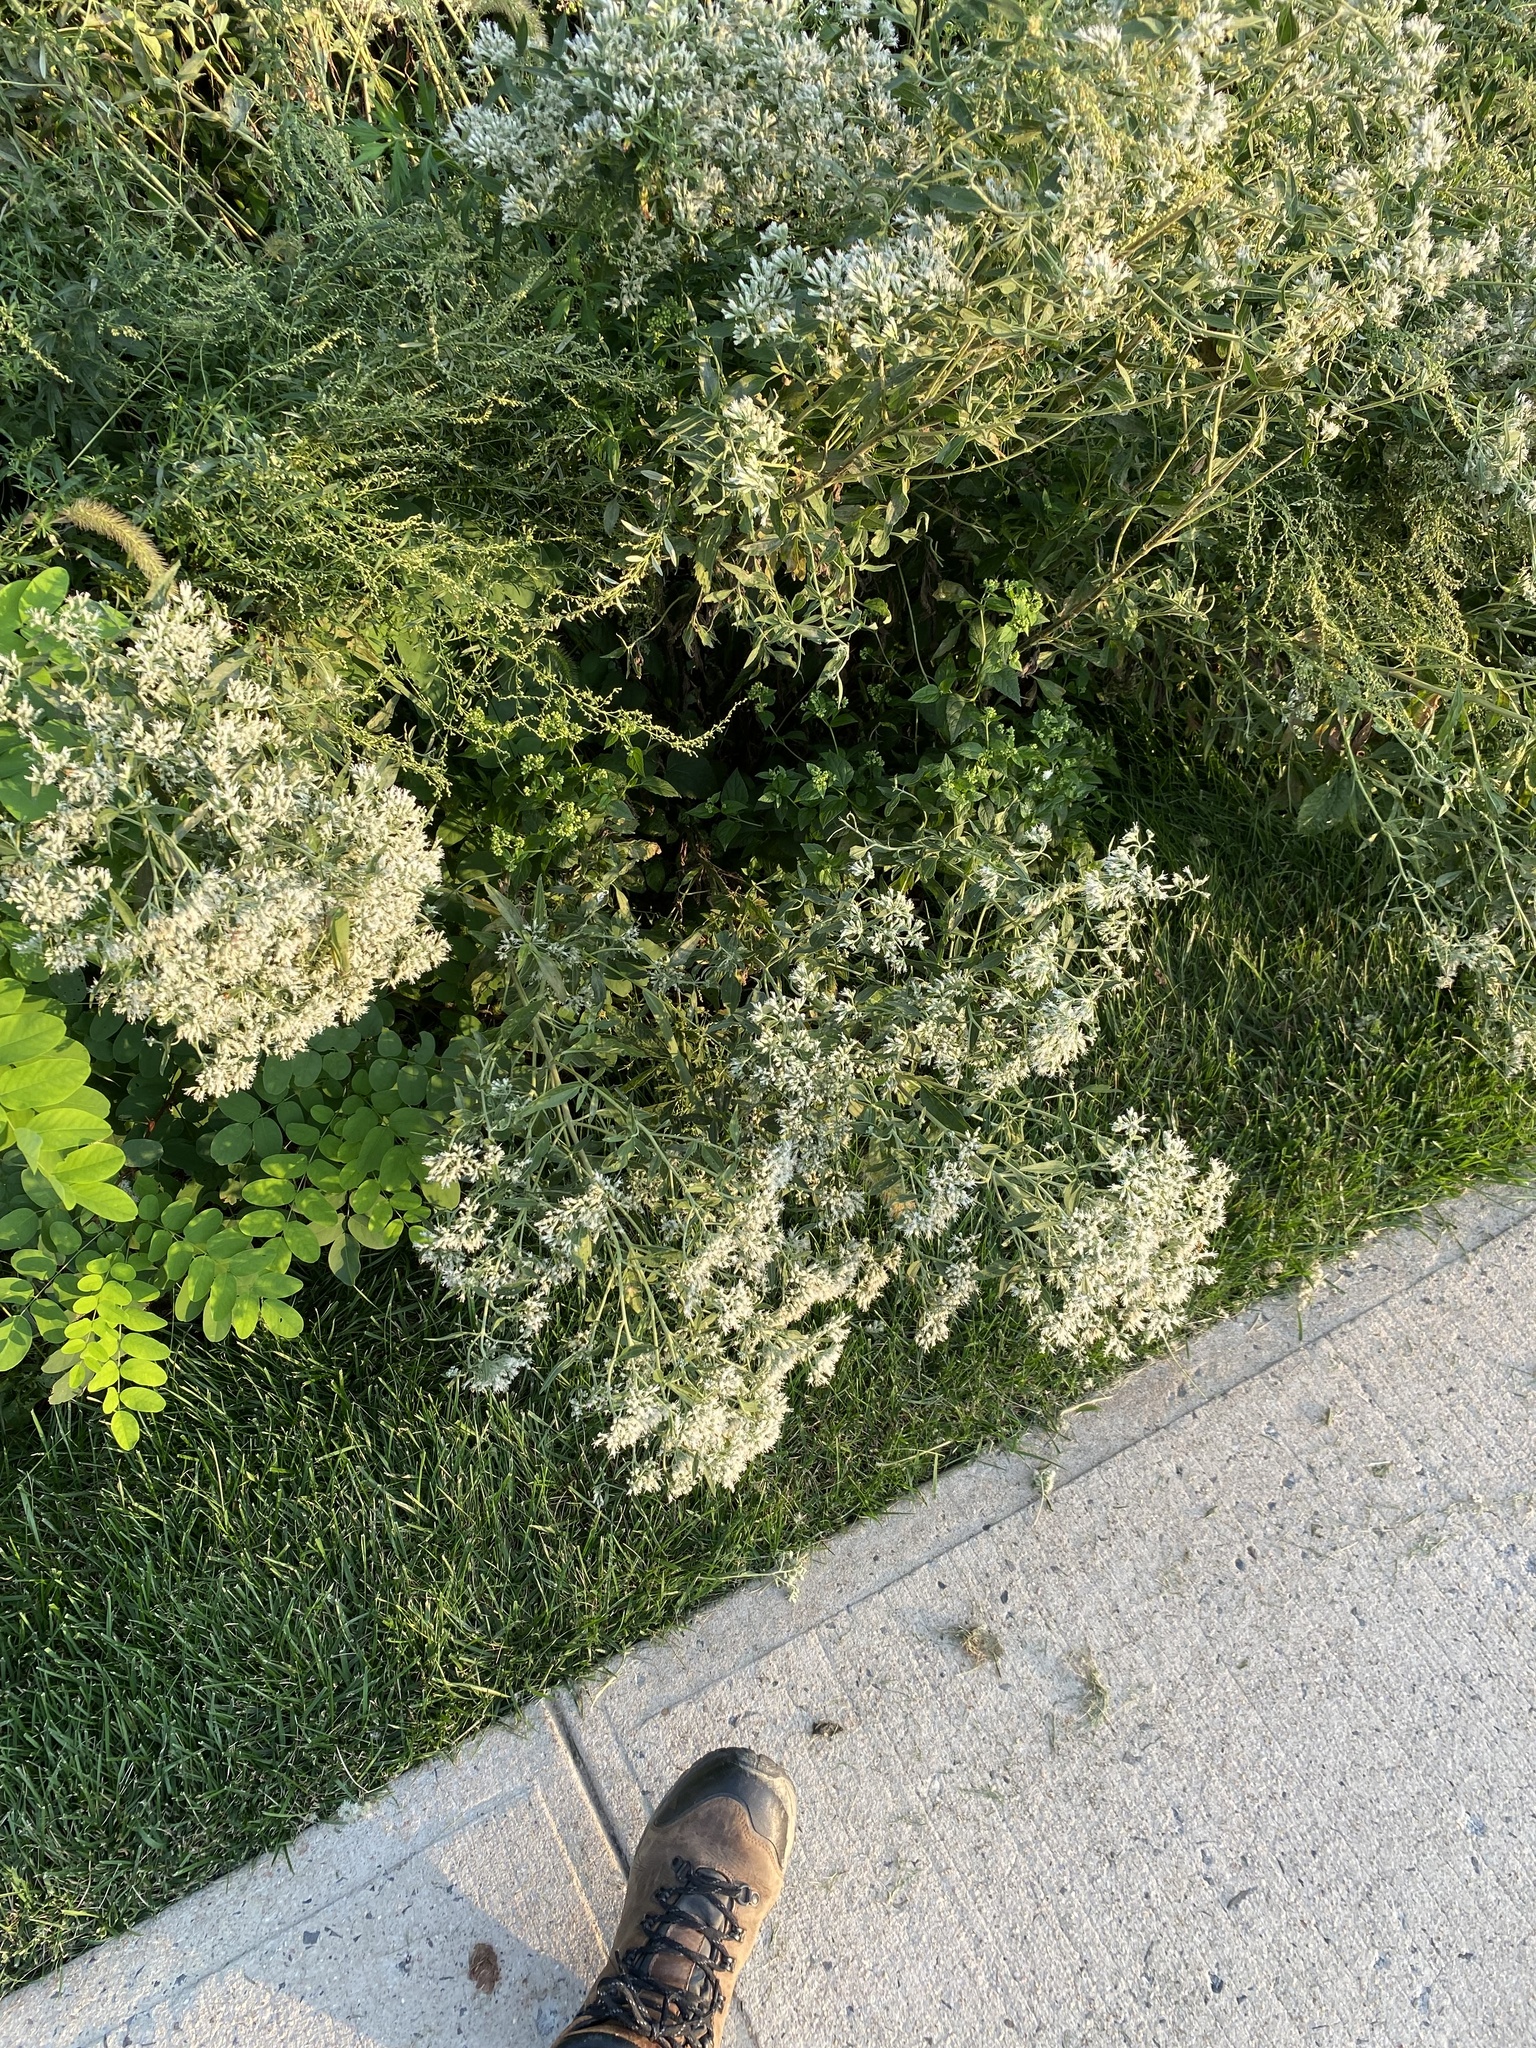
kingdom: Plantae
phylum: Tracheophyta
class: Magnoliopsida
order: Asterales
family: Asteraceae
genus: Eupatorium
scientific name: Eupatorium serotinum
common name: Late boneset
